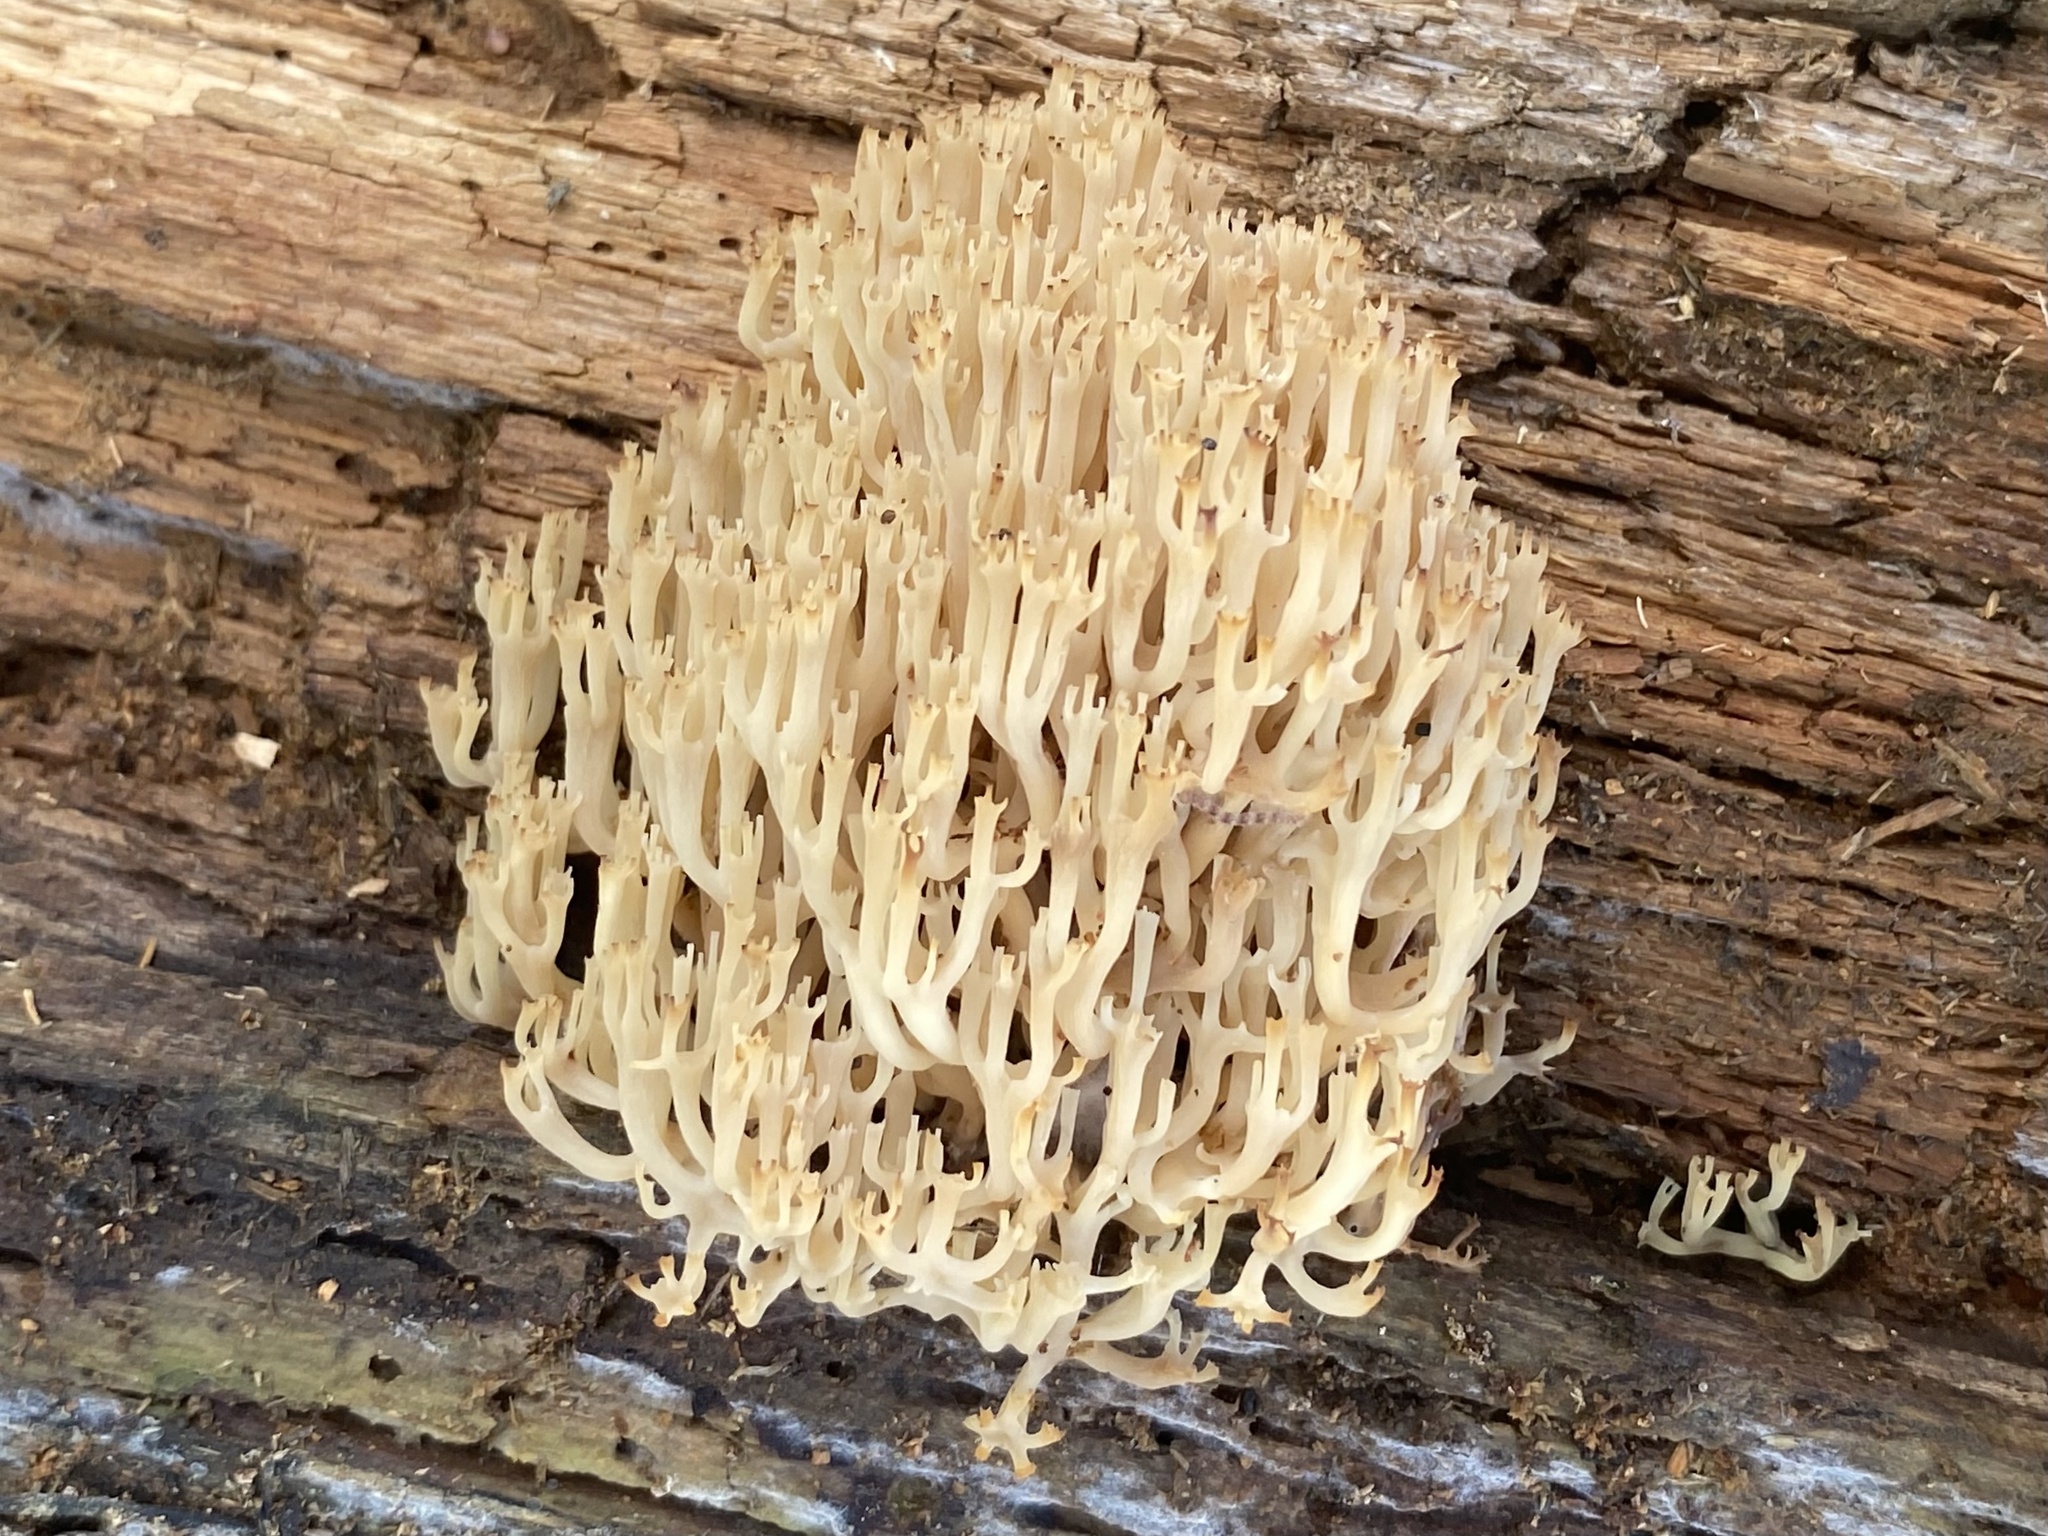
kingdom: Fungi
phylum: Basidiomycota
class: Agaricomycetes
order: Russulales
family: Auriscalpiaceae
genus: Artomyces
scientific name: Artomyces pyxidatus
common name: Crown-tipped coral fungus
